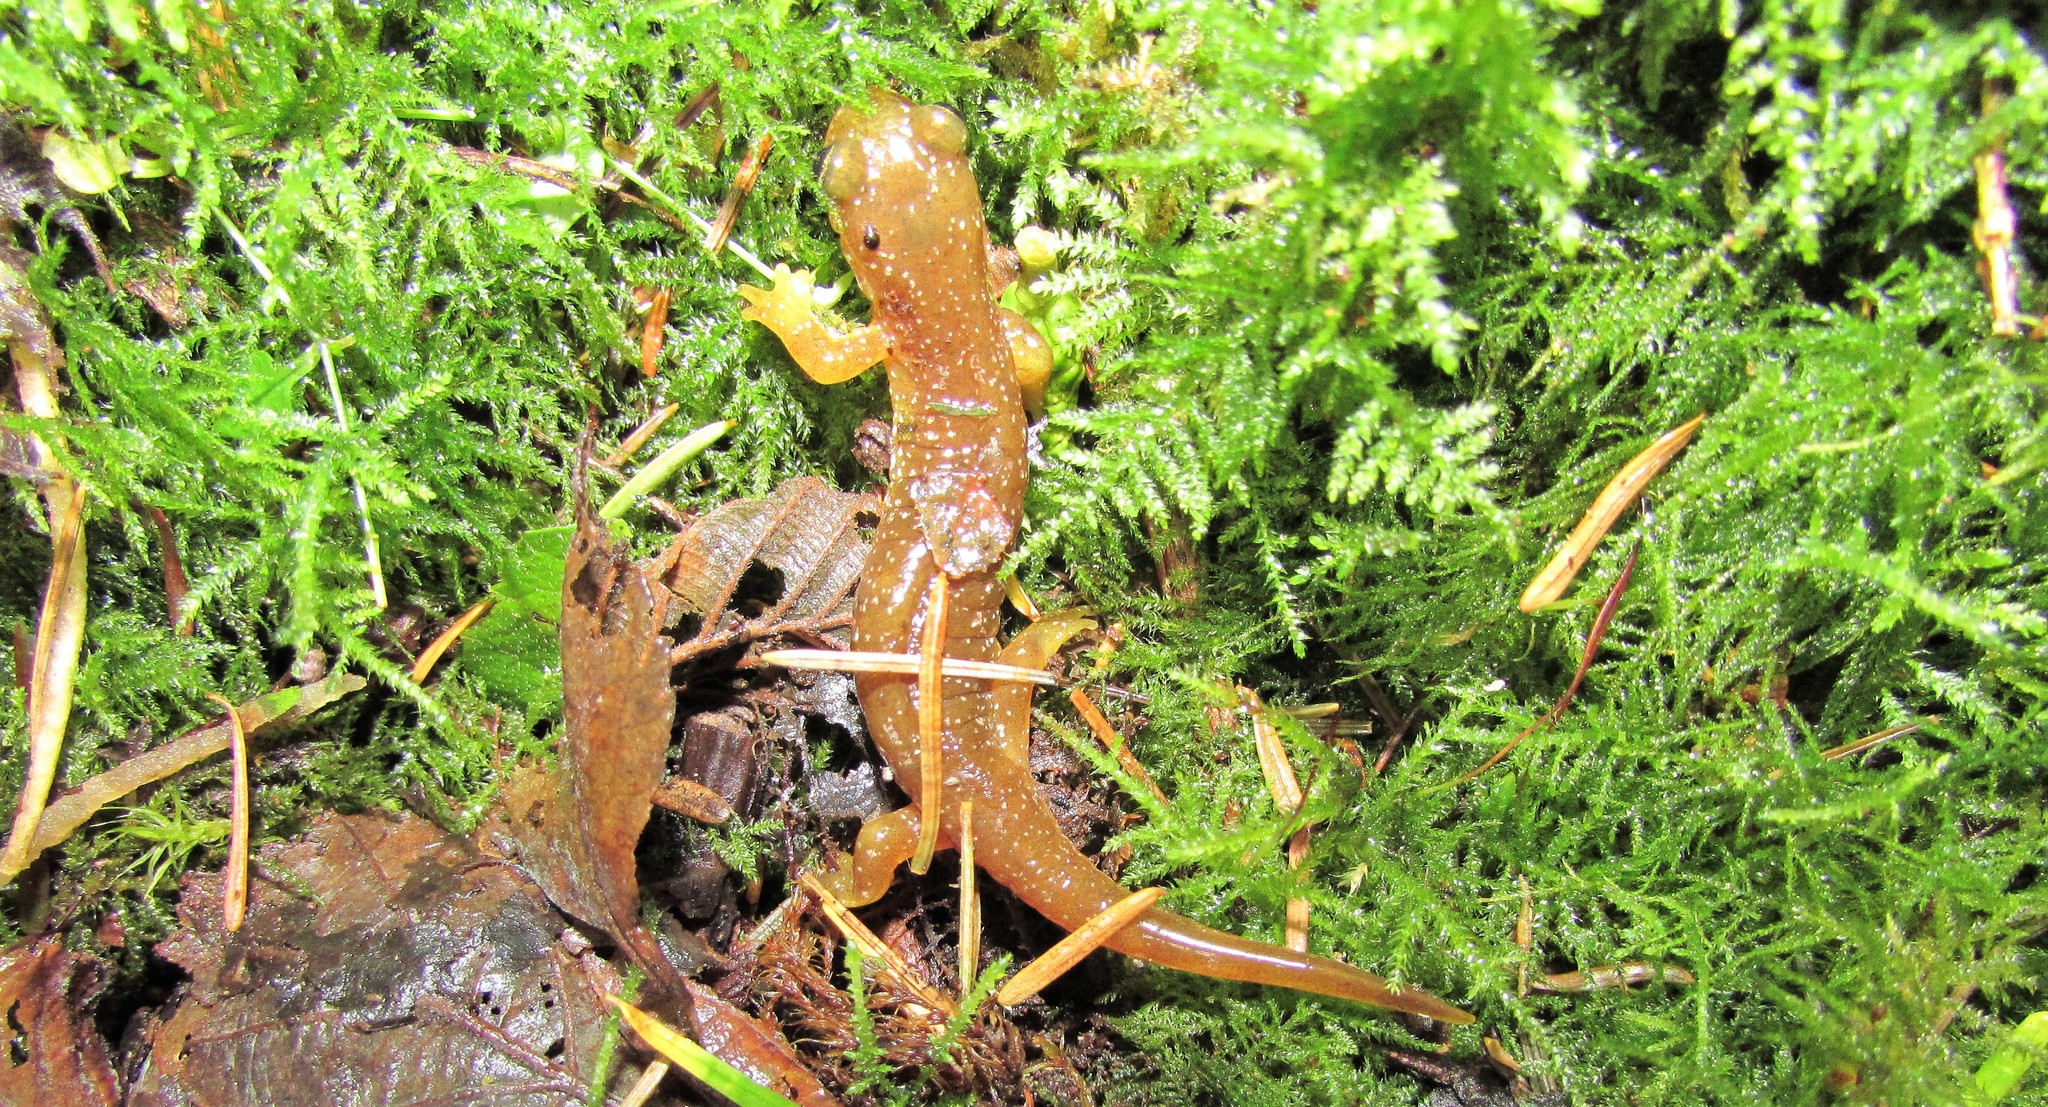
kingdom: Animalia
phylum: Chordata
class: Amphibia
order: Caudata
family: Rhyacotritonidae
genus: Rhyacotriton
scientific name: Rhyacotriton variegatus
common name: Southern torrent salamander
